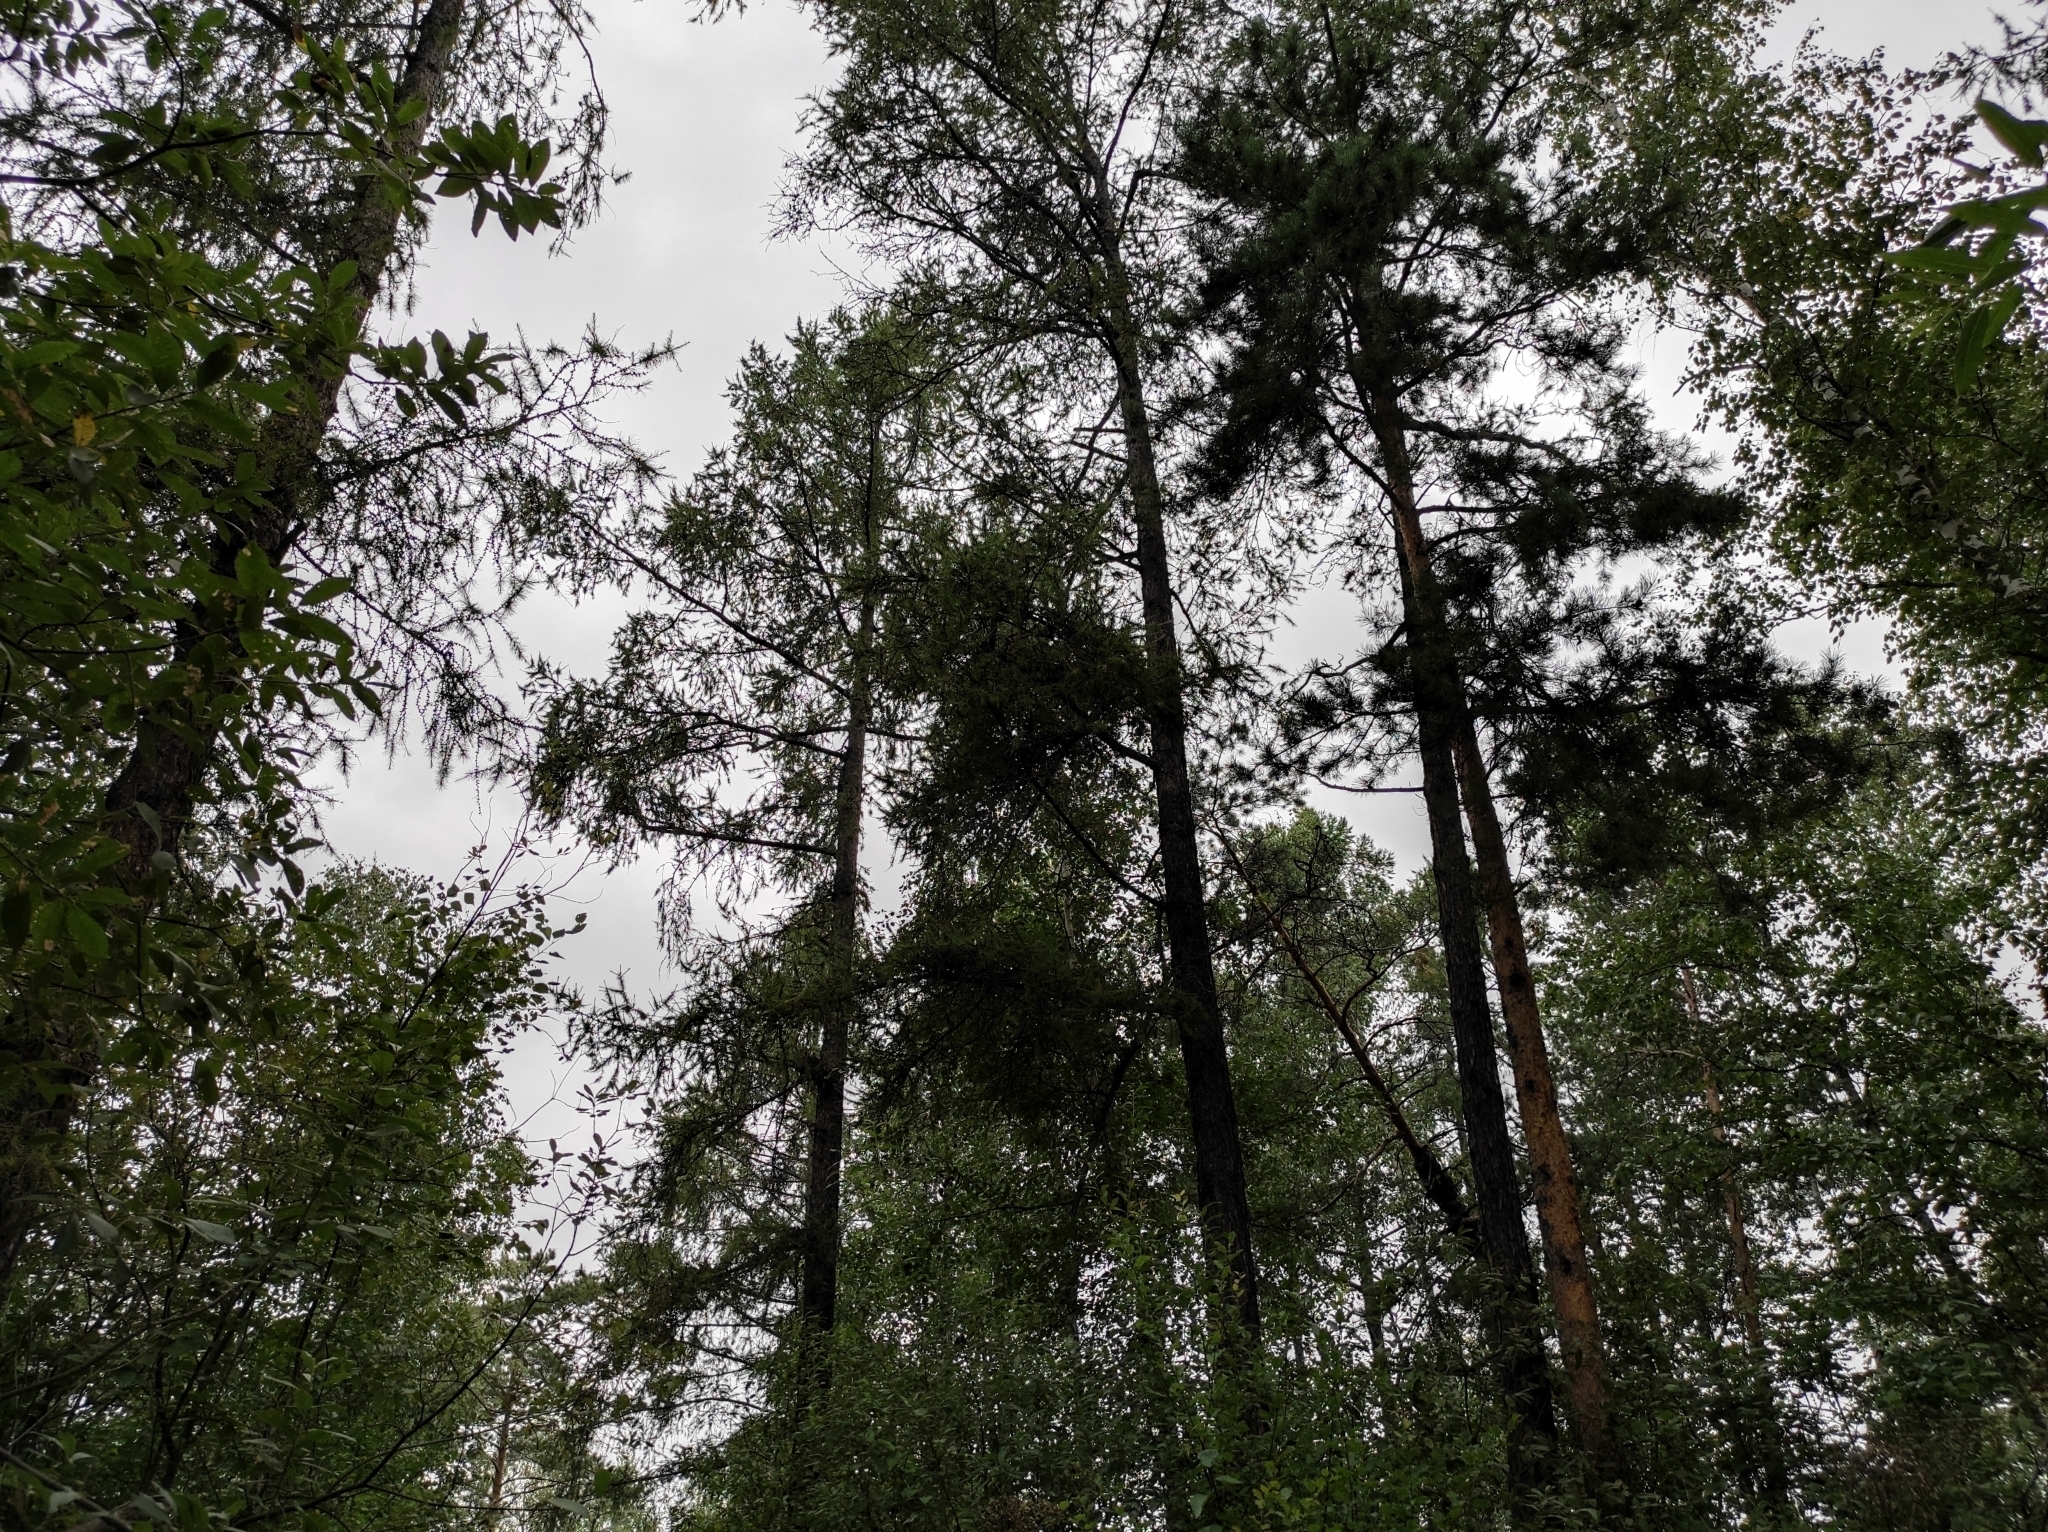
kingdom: Plantae
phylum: Tracheophyta
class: Pinopsida
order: Pinales
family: Pinaceae
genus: Larix
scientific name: Larix sibirica
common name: Siberian larch
